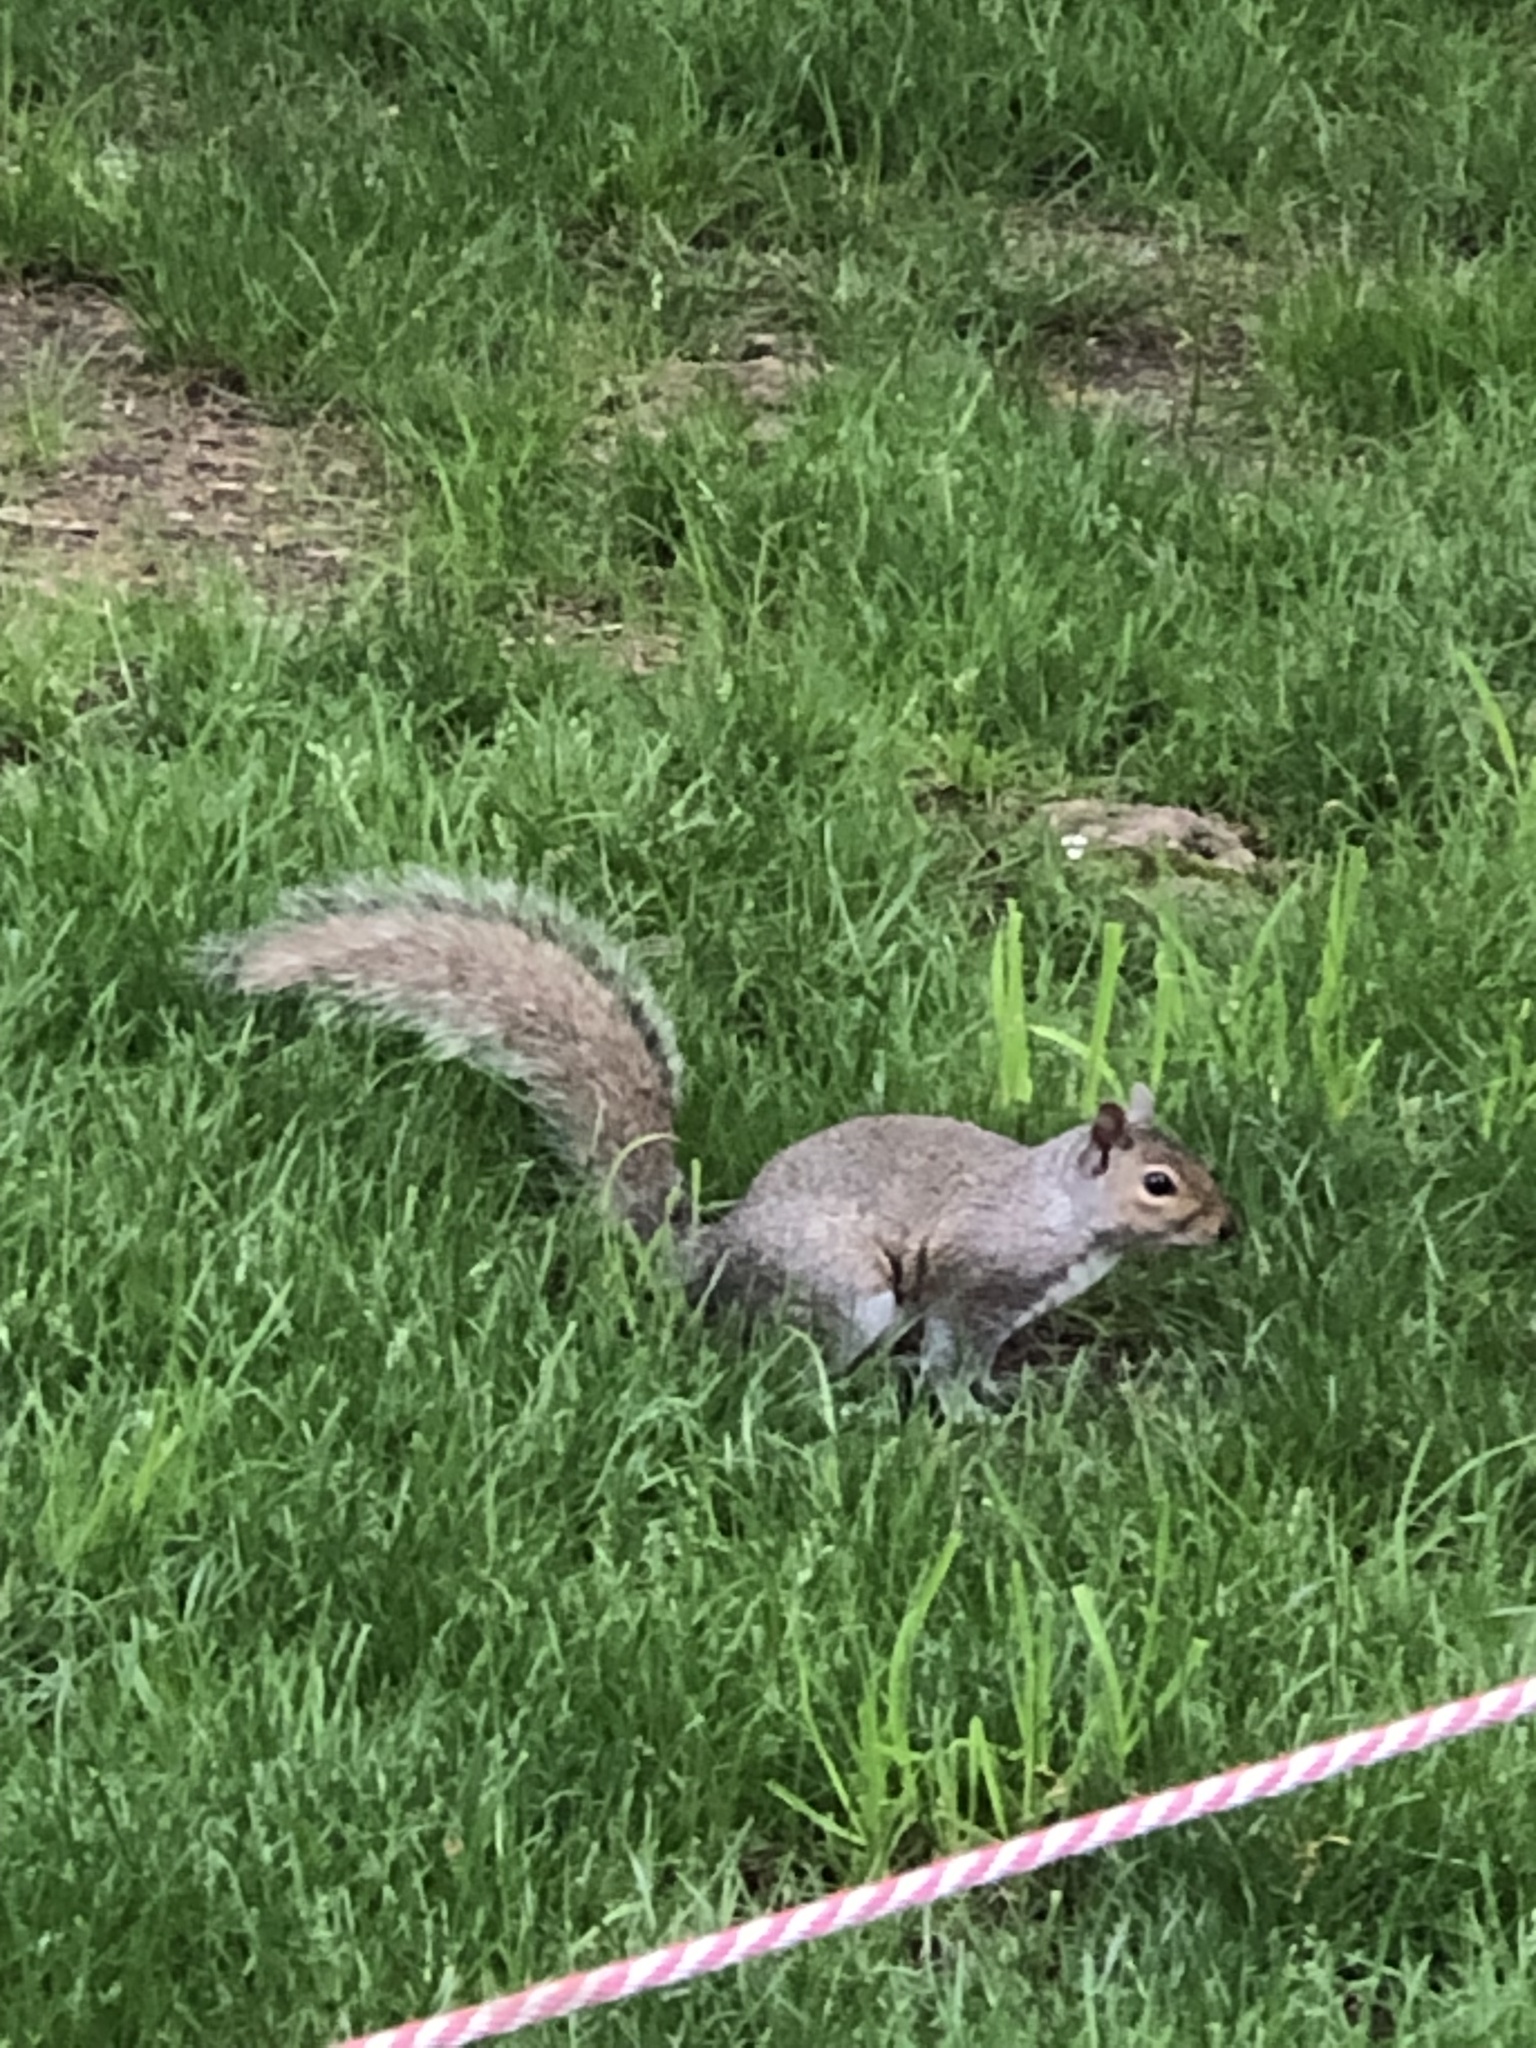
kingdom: Animalia
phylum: Chordata
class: Mammalia
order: Rodentia
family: Sciuridae
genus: Sciurus
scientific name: Sciurus carolinensis
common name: Eastern gray squirrel
